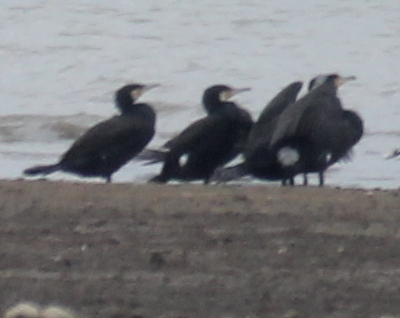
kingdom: Animalia
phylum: Chordata
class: Aves
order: Suliformes
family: Phalacrocoracidae
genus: Phalacrocorax
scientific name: Phalacrocorax carbo
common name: Great cormorant
